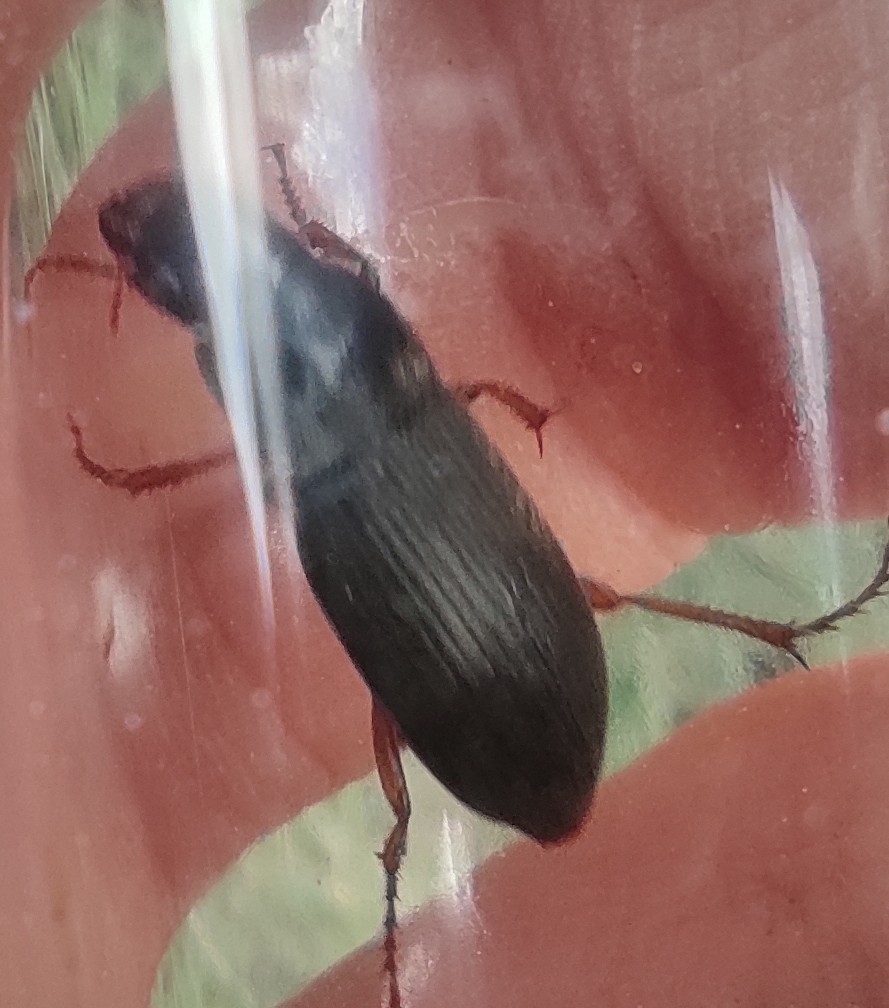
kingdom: Animalia
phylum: Arthropoda
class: Insecta
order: Coleoptera
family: Carabidae
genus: Harpalus
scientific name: Harpalus rufipes
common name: Strawberry harp ground beetle
